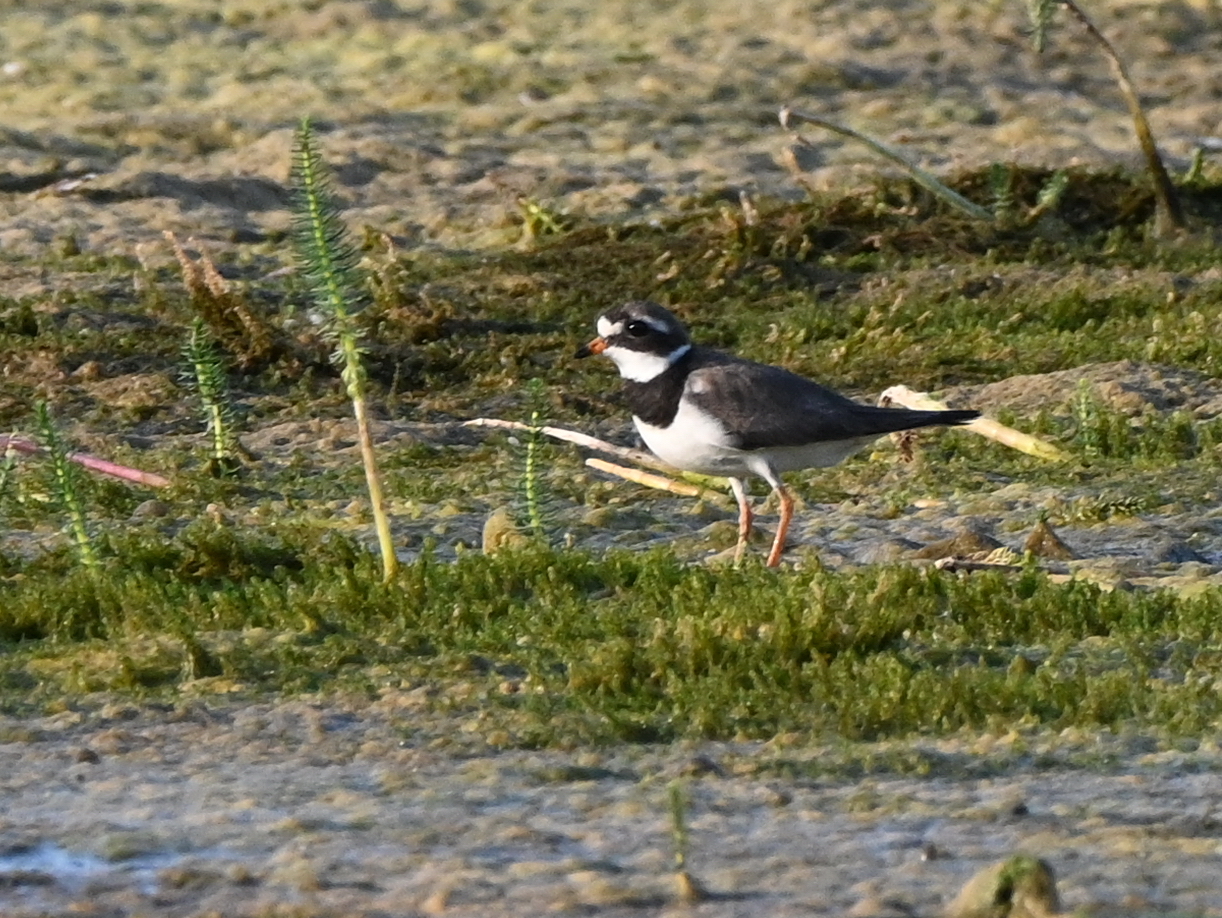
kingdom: Animalia
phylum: Chordata
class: Aves
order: Charadriiformes
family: Charadriidae
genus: Charadrius
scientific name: Charadrius hiaticula
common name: Common ringed plover
